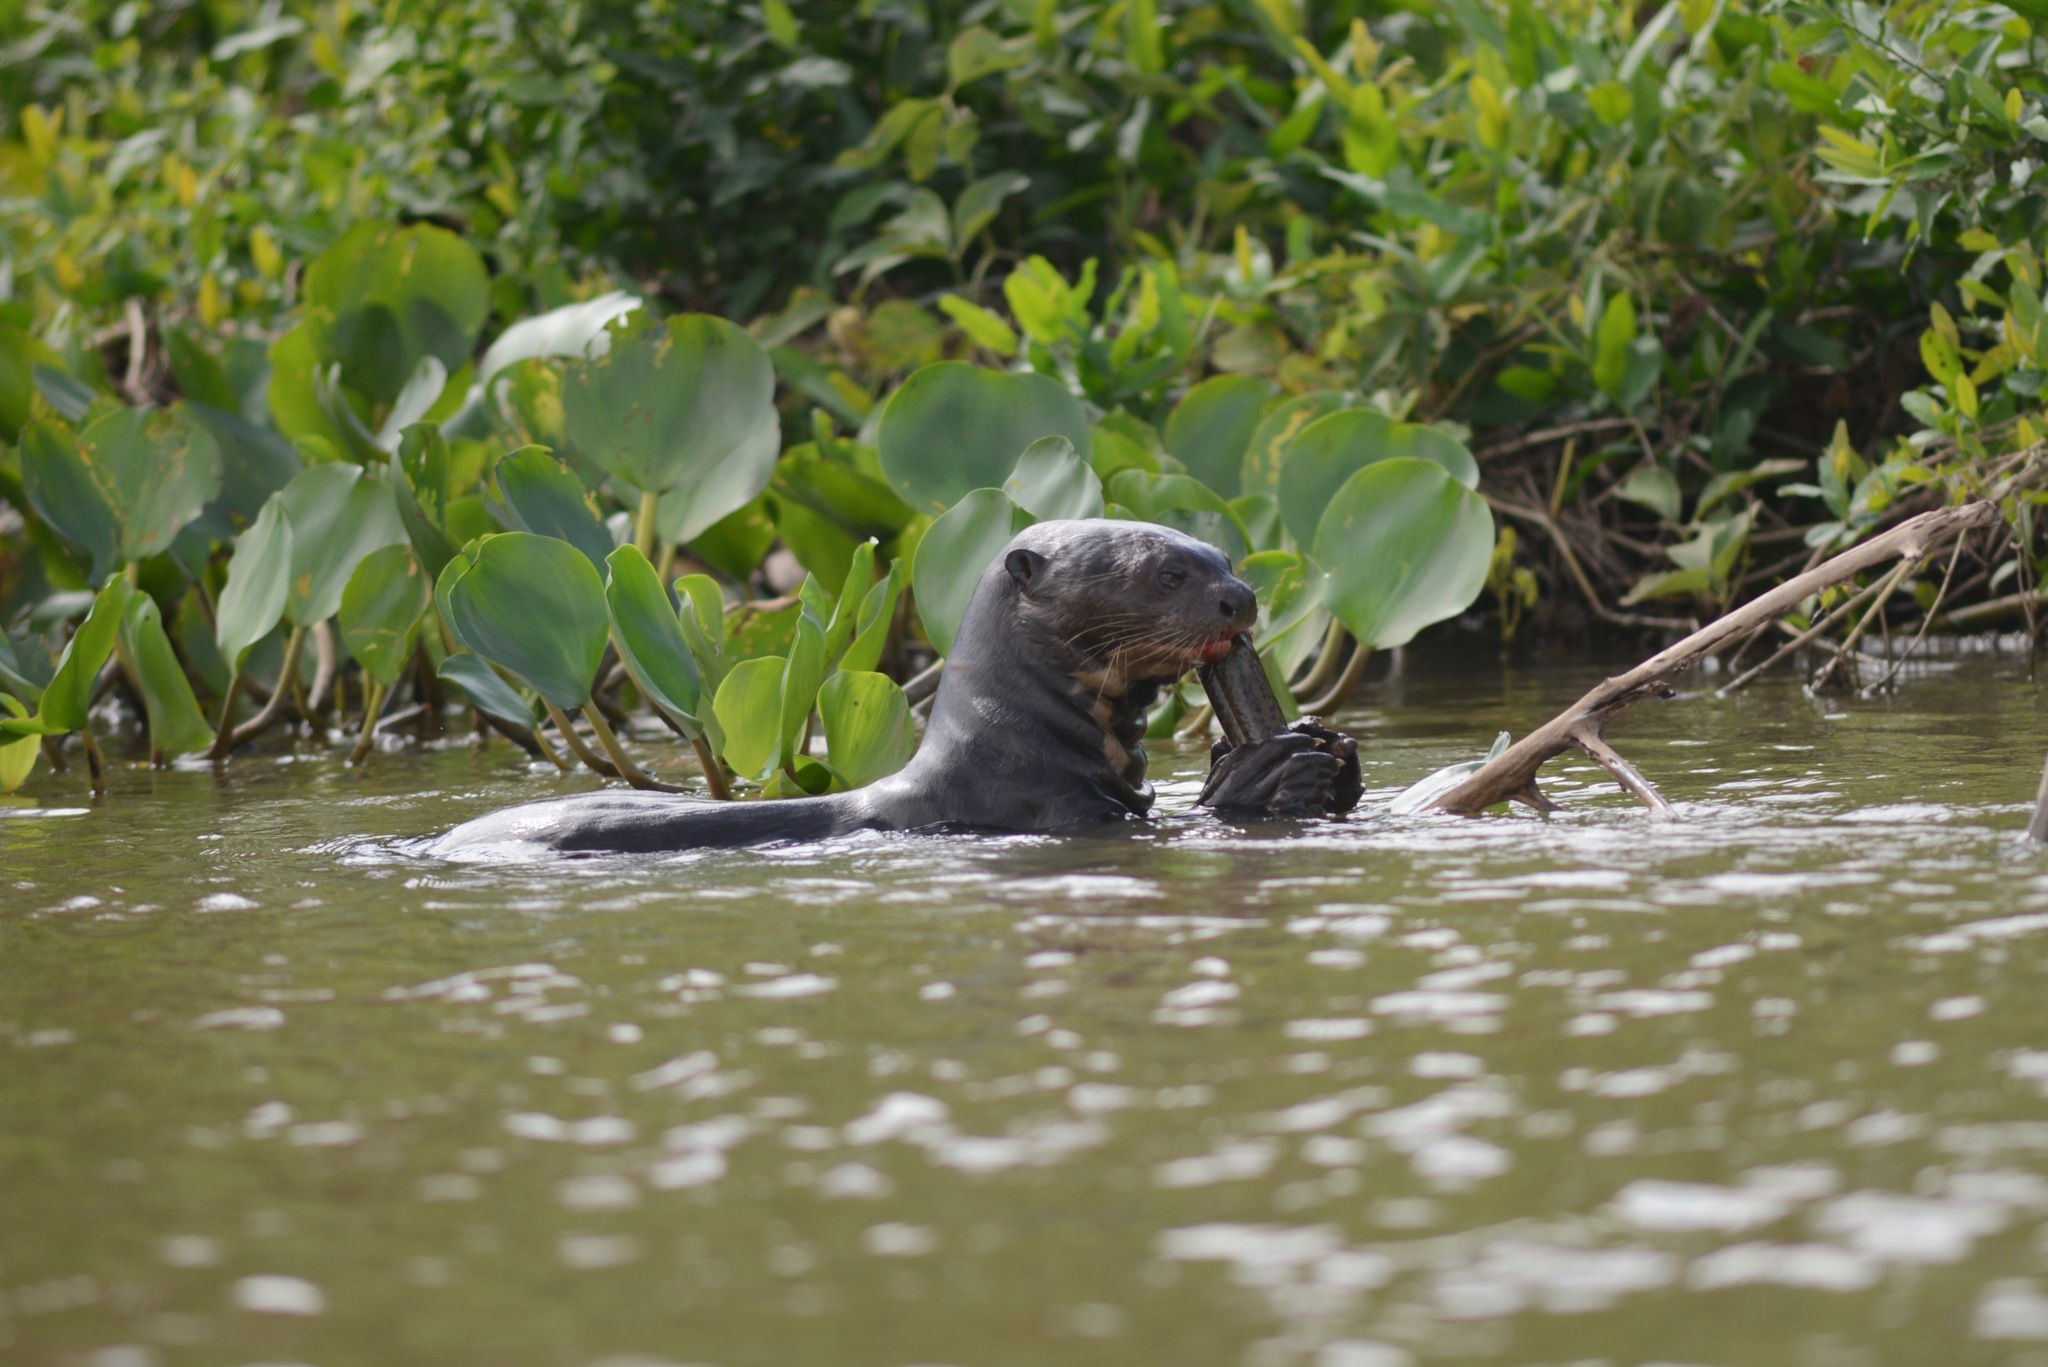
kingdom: Animalia
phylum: Chordata
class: Mammalia
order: Carnivora
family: Mustelidae
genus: Pteronura
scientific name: Pteronura brasiliensis
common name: Giant otter
